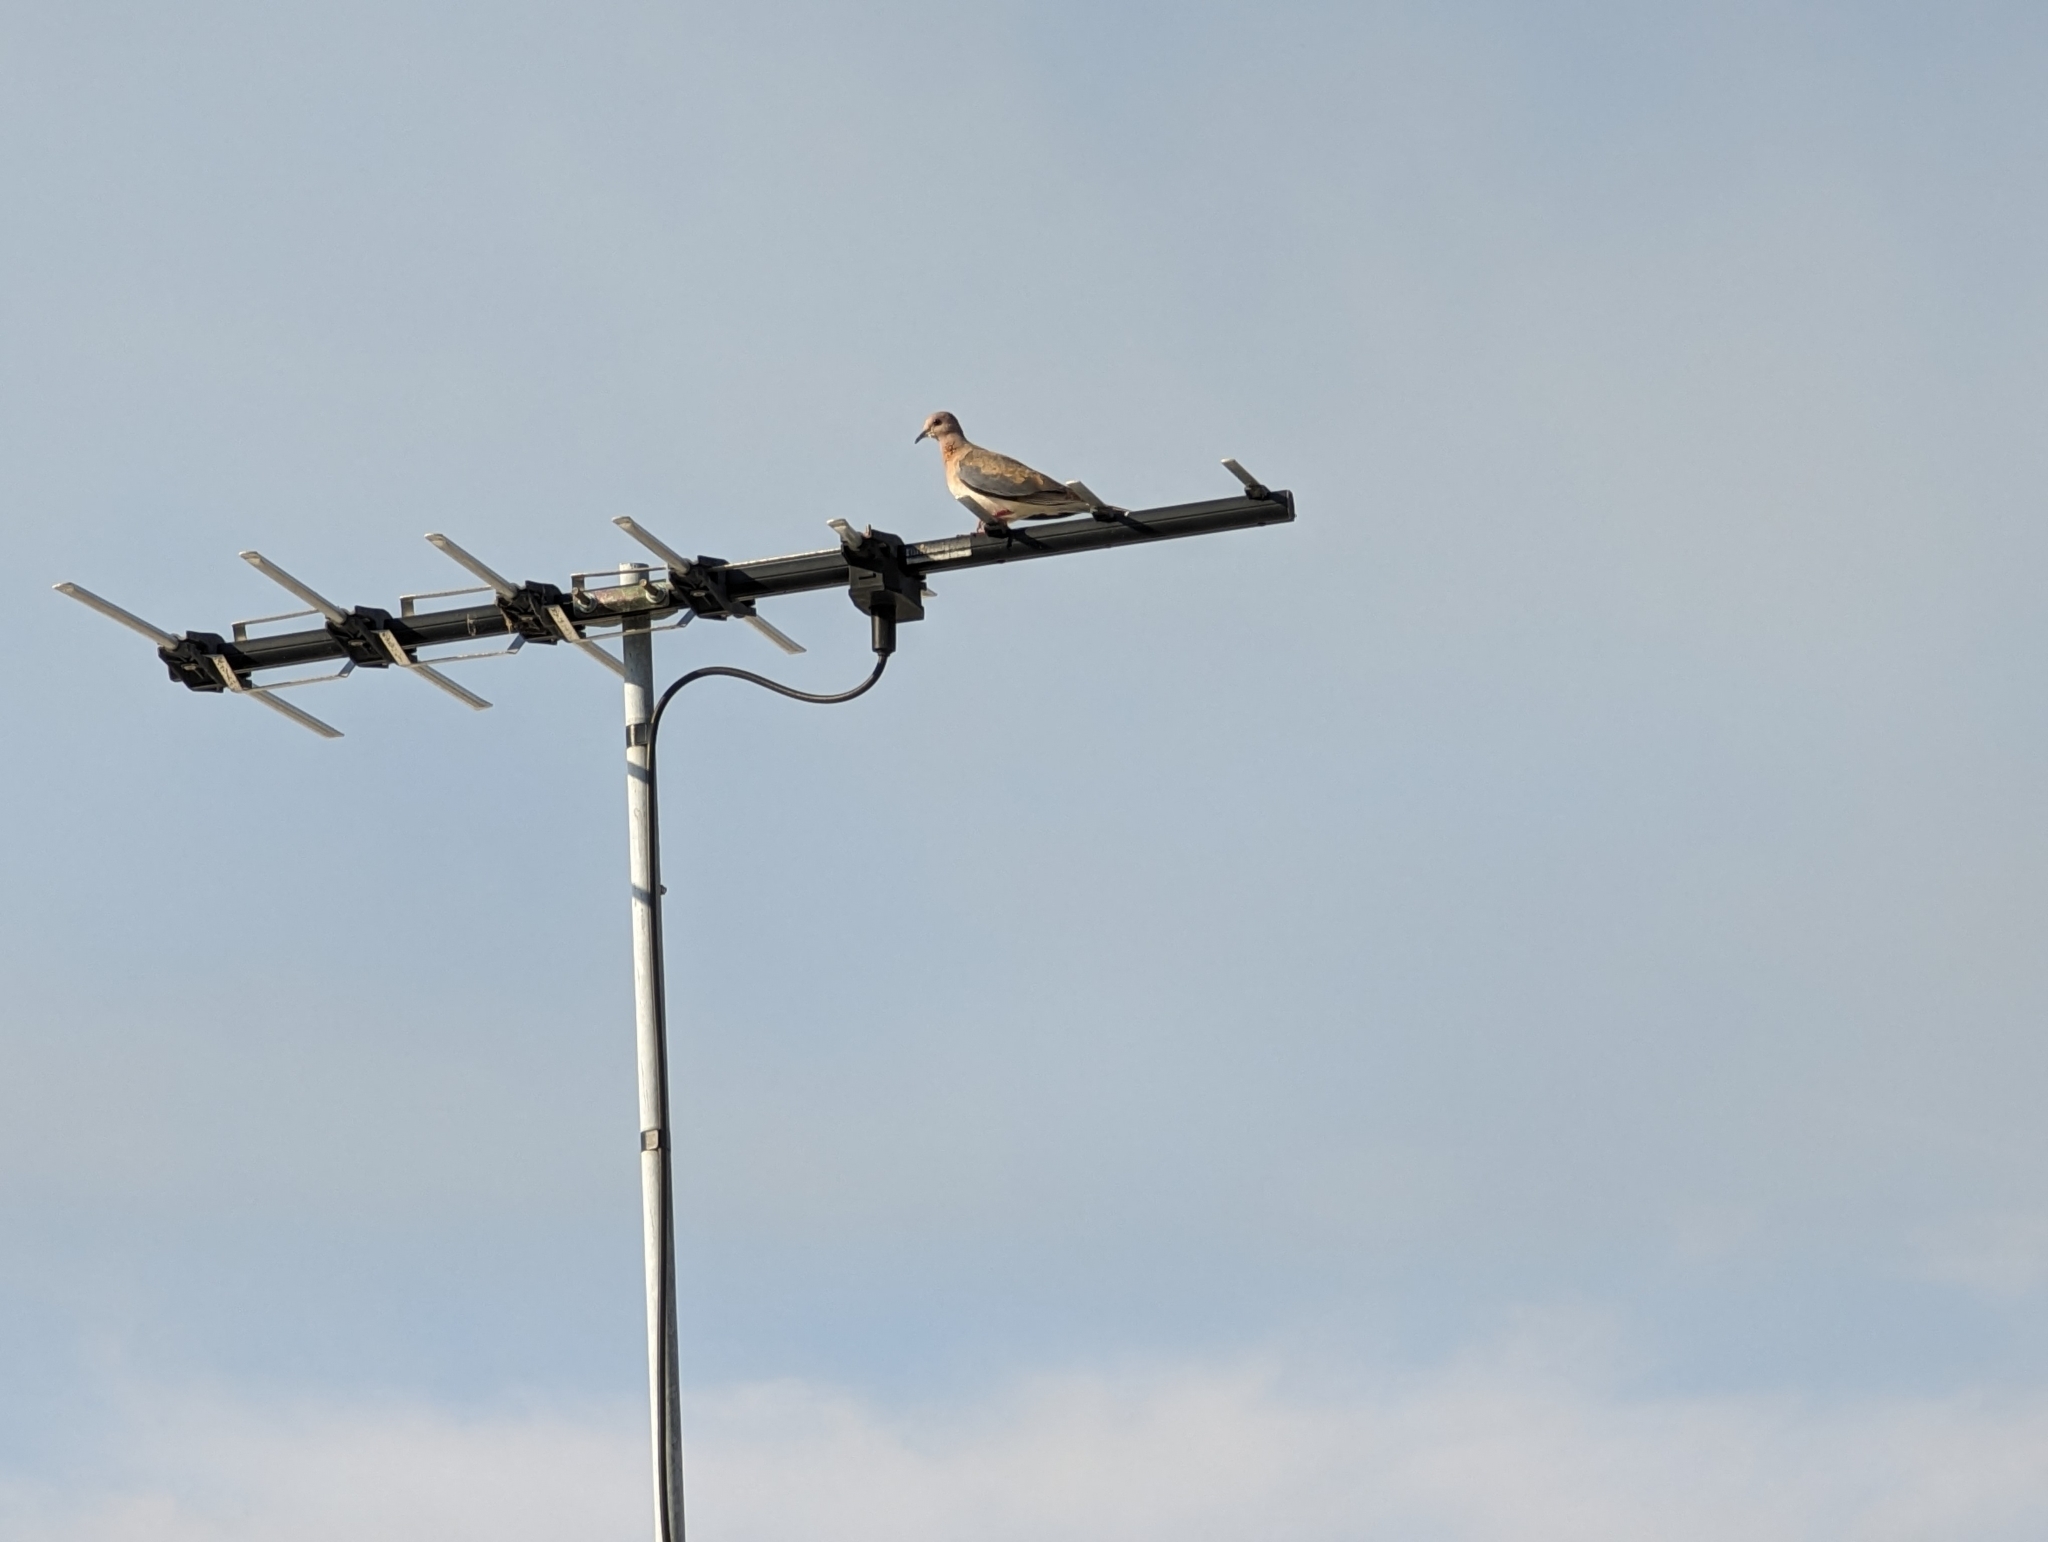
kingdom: Animalia
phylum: Chordata
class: Aves
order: Columbiformes
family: Columbidae
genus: Spilopelia
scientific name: Spilopelia senegalensis
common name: Laughing dove
